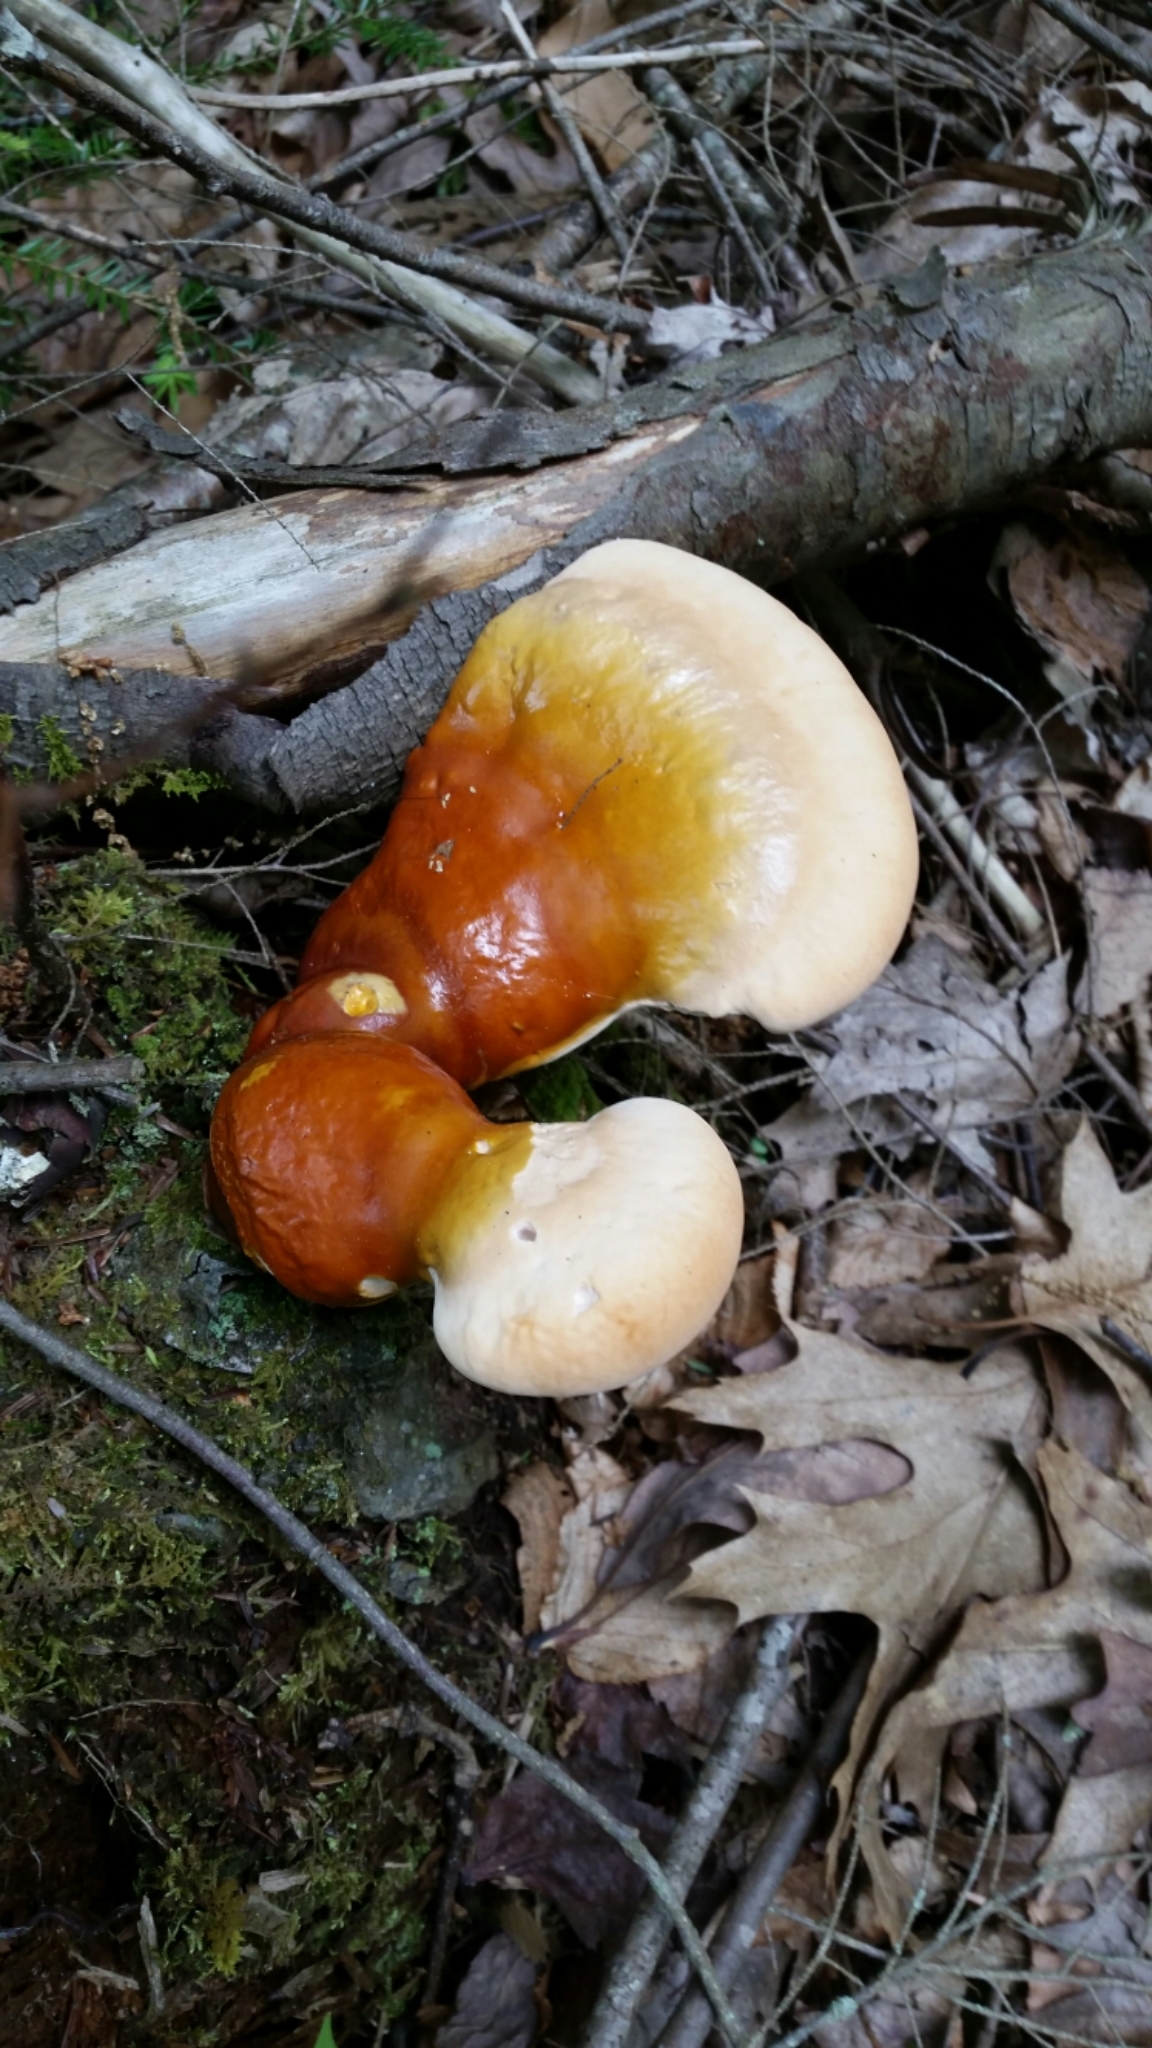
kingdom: Fungi
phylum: Basidiomycota
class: Agaricomycetes
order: Polyporales
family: Polyporaceae
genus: Ganoderma
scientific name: Ganoderma tsugae
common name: Hemlock varnish shelf
